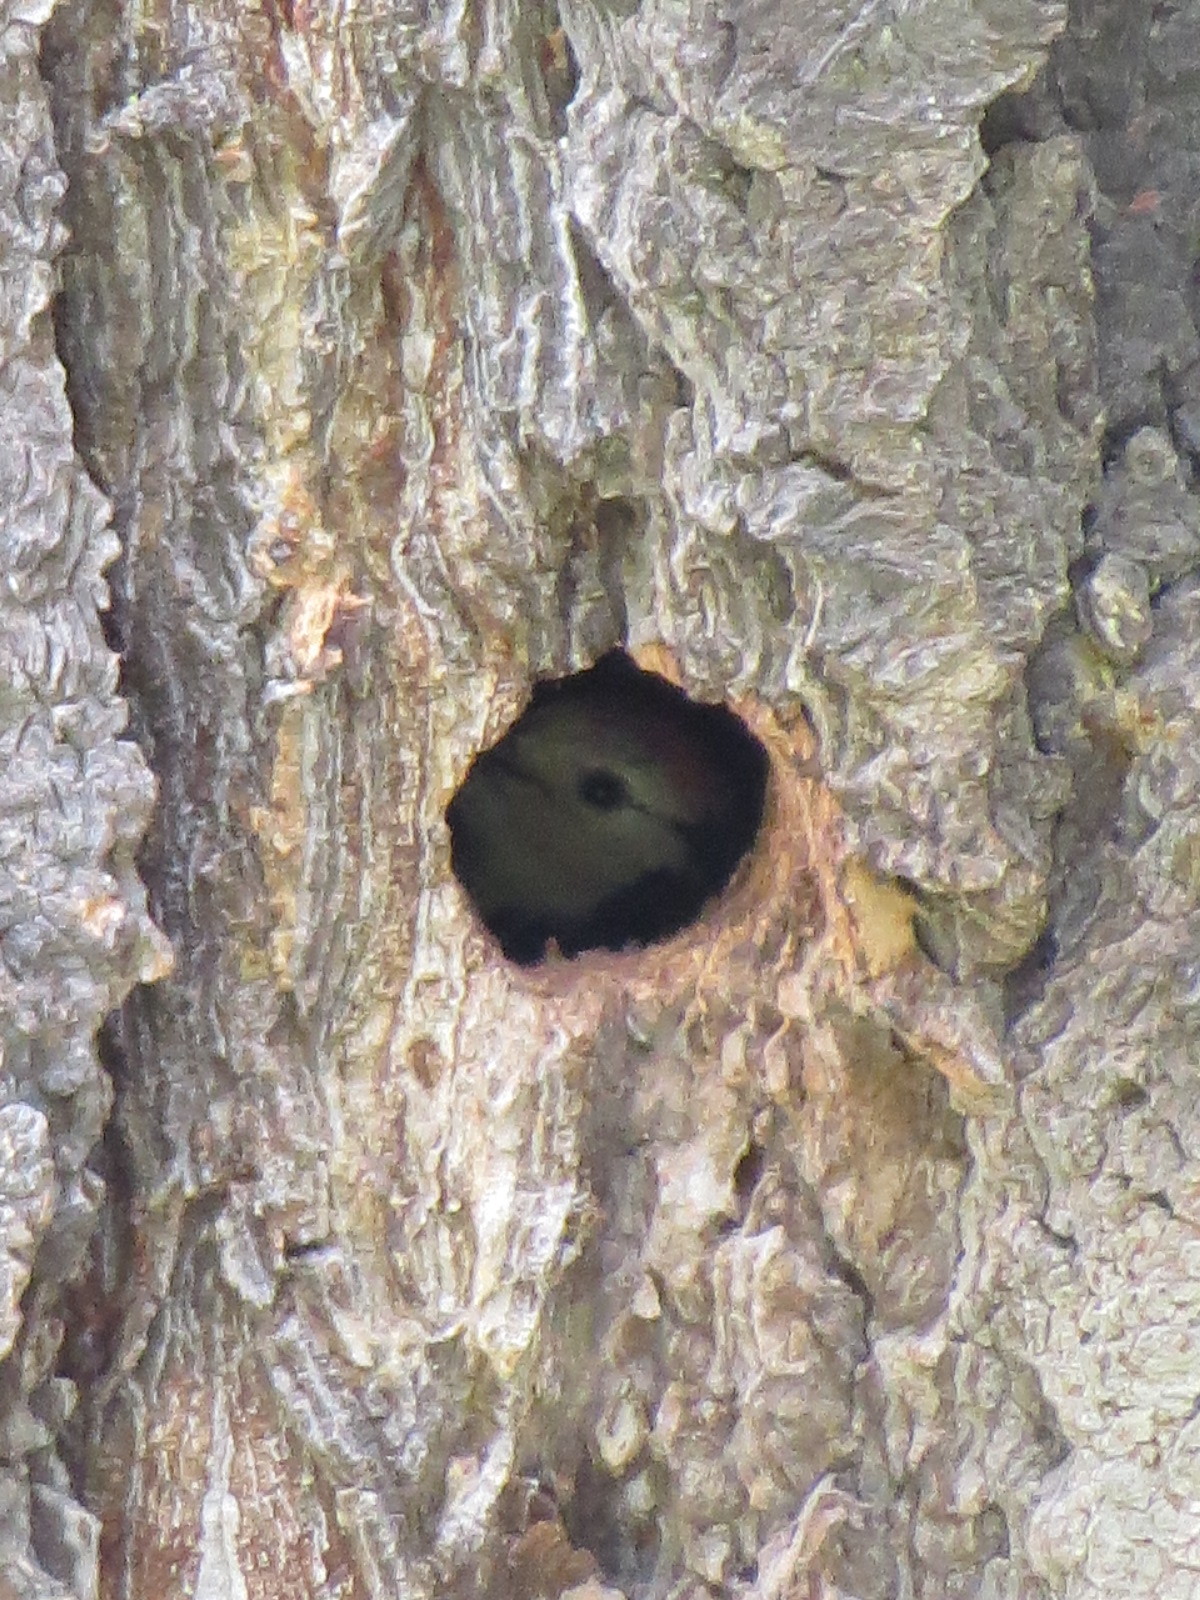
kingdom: Animalia
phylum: Chordata
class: Aves
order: Piciformes
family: Picidae
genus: Leuconotopicus
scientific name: Leuconotopicus albolarvatus
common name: White-headed woodpecker
